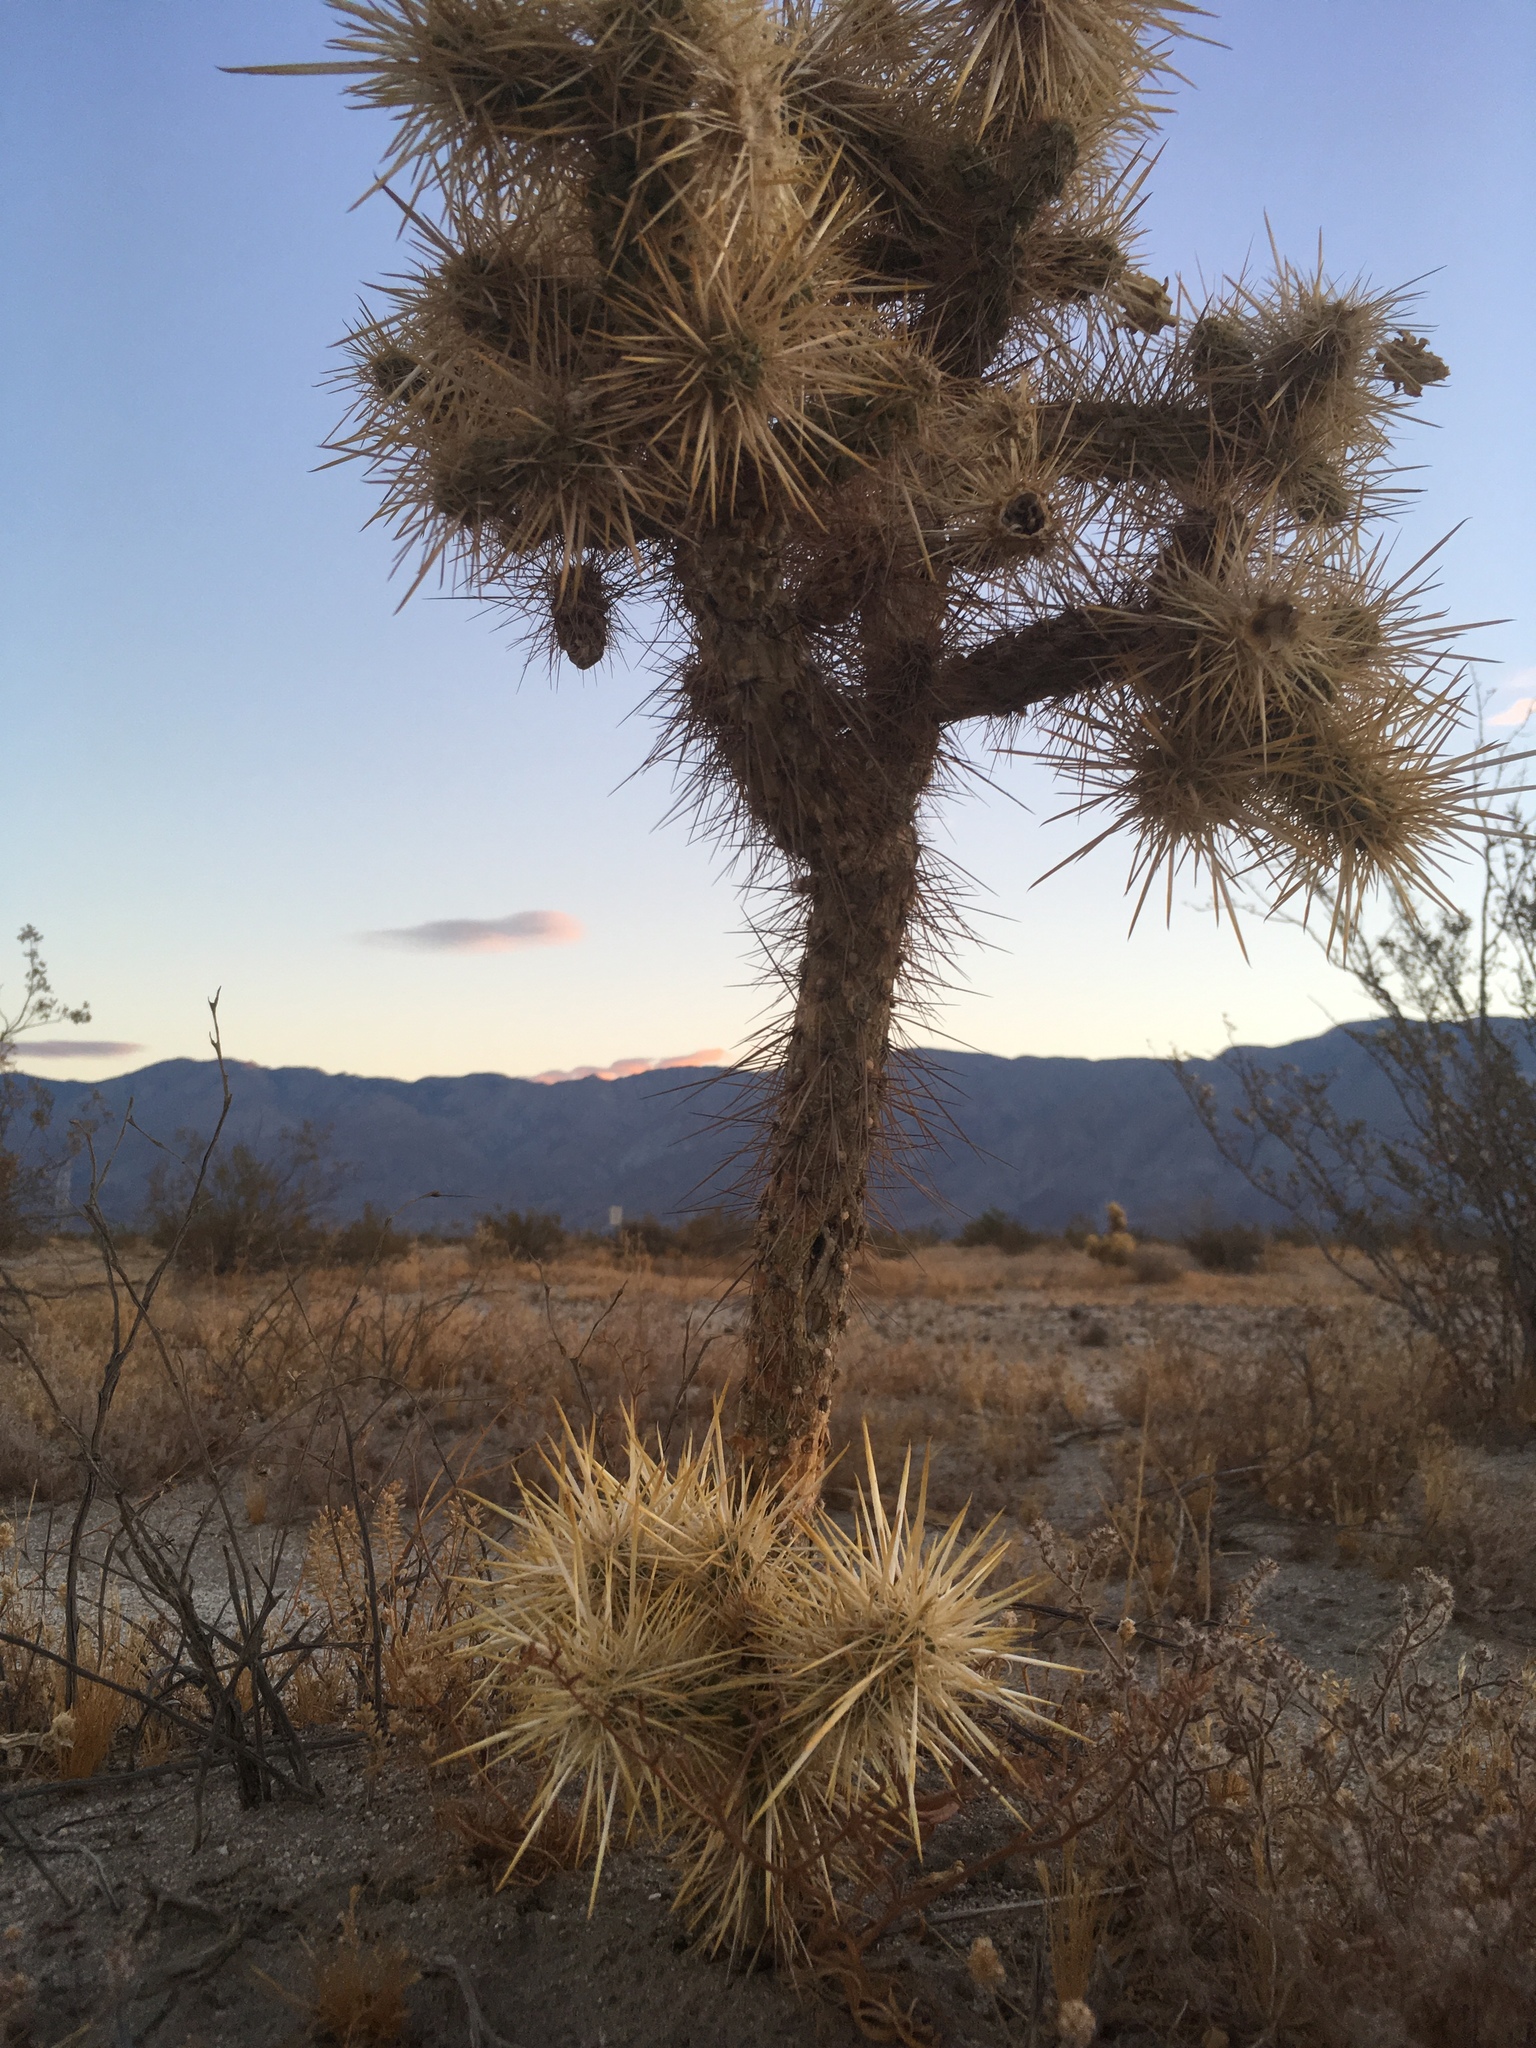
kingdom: Plantae
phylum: Tracheophyta
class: Magnoliopsida
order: Caryophyllales
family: Cactaceae
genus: Cylindropuntia
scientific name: Cylindropuntia echinocarpa
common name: Ground cholla
